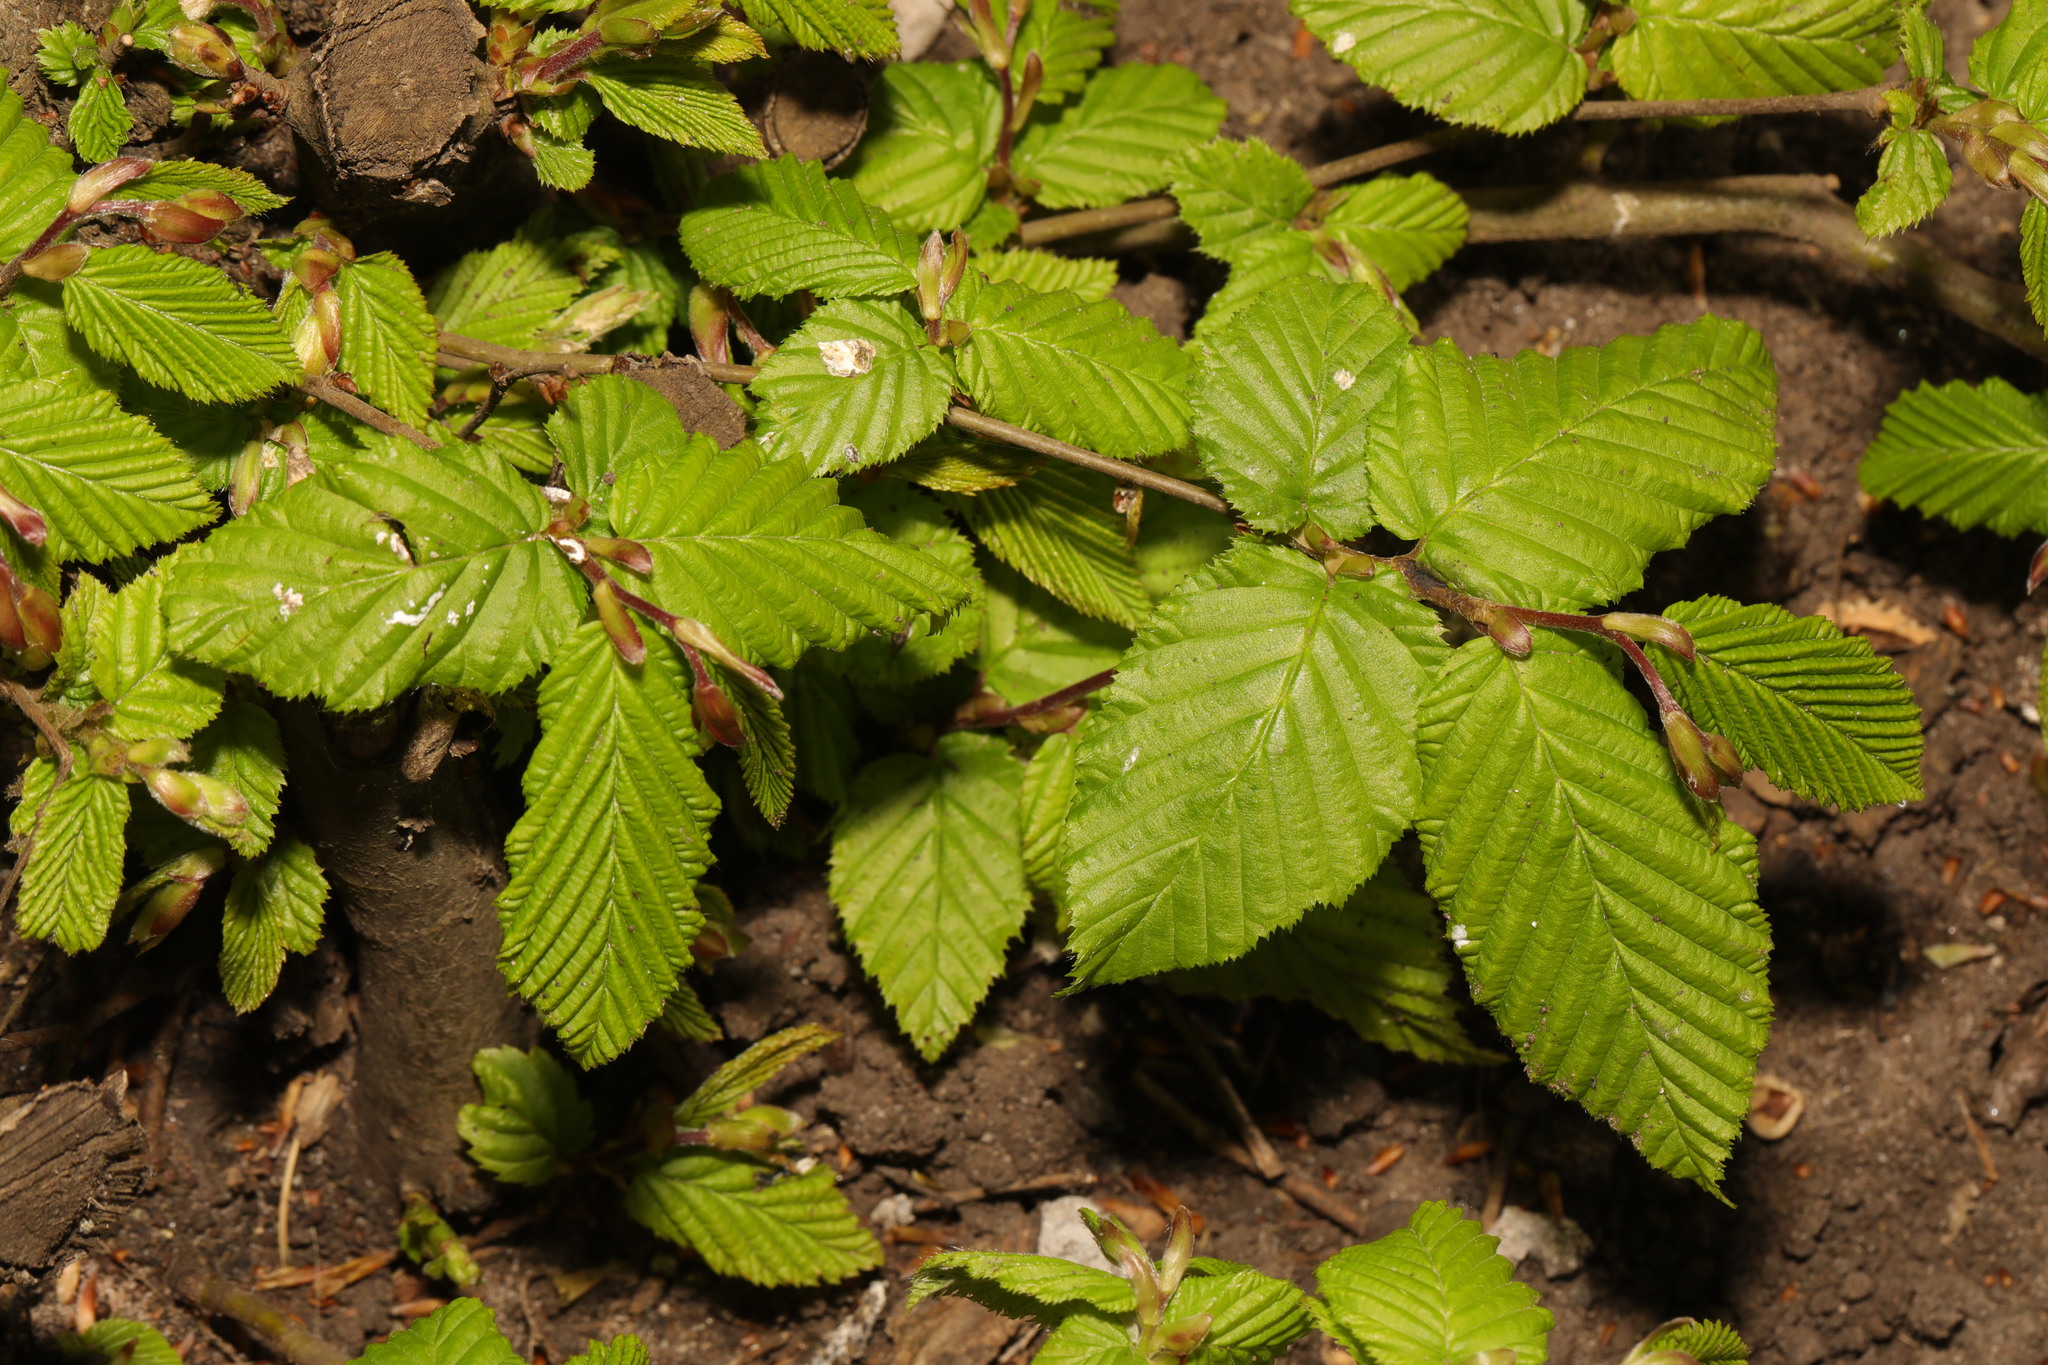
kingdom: Plantae
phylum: Tracheophyta
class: Magnoliopsida
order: Fagales
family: Betulaceae
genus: Carpinus
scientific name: Carpinus betulus
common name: Hornbeam
